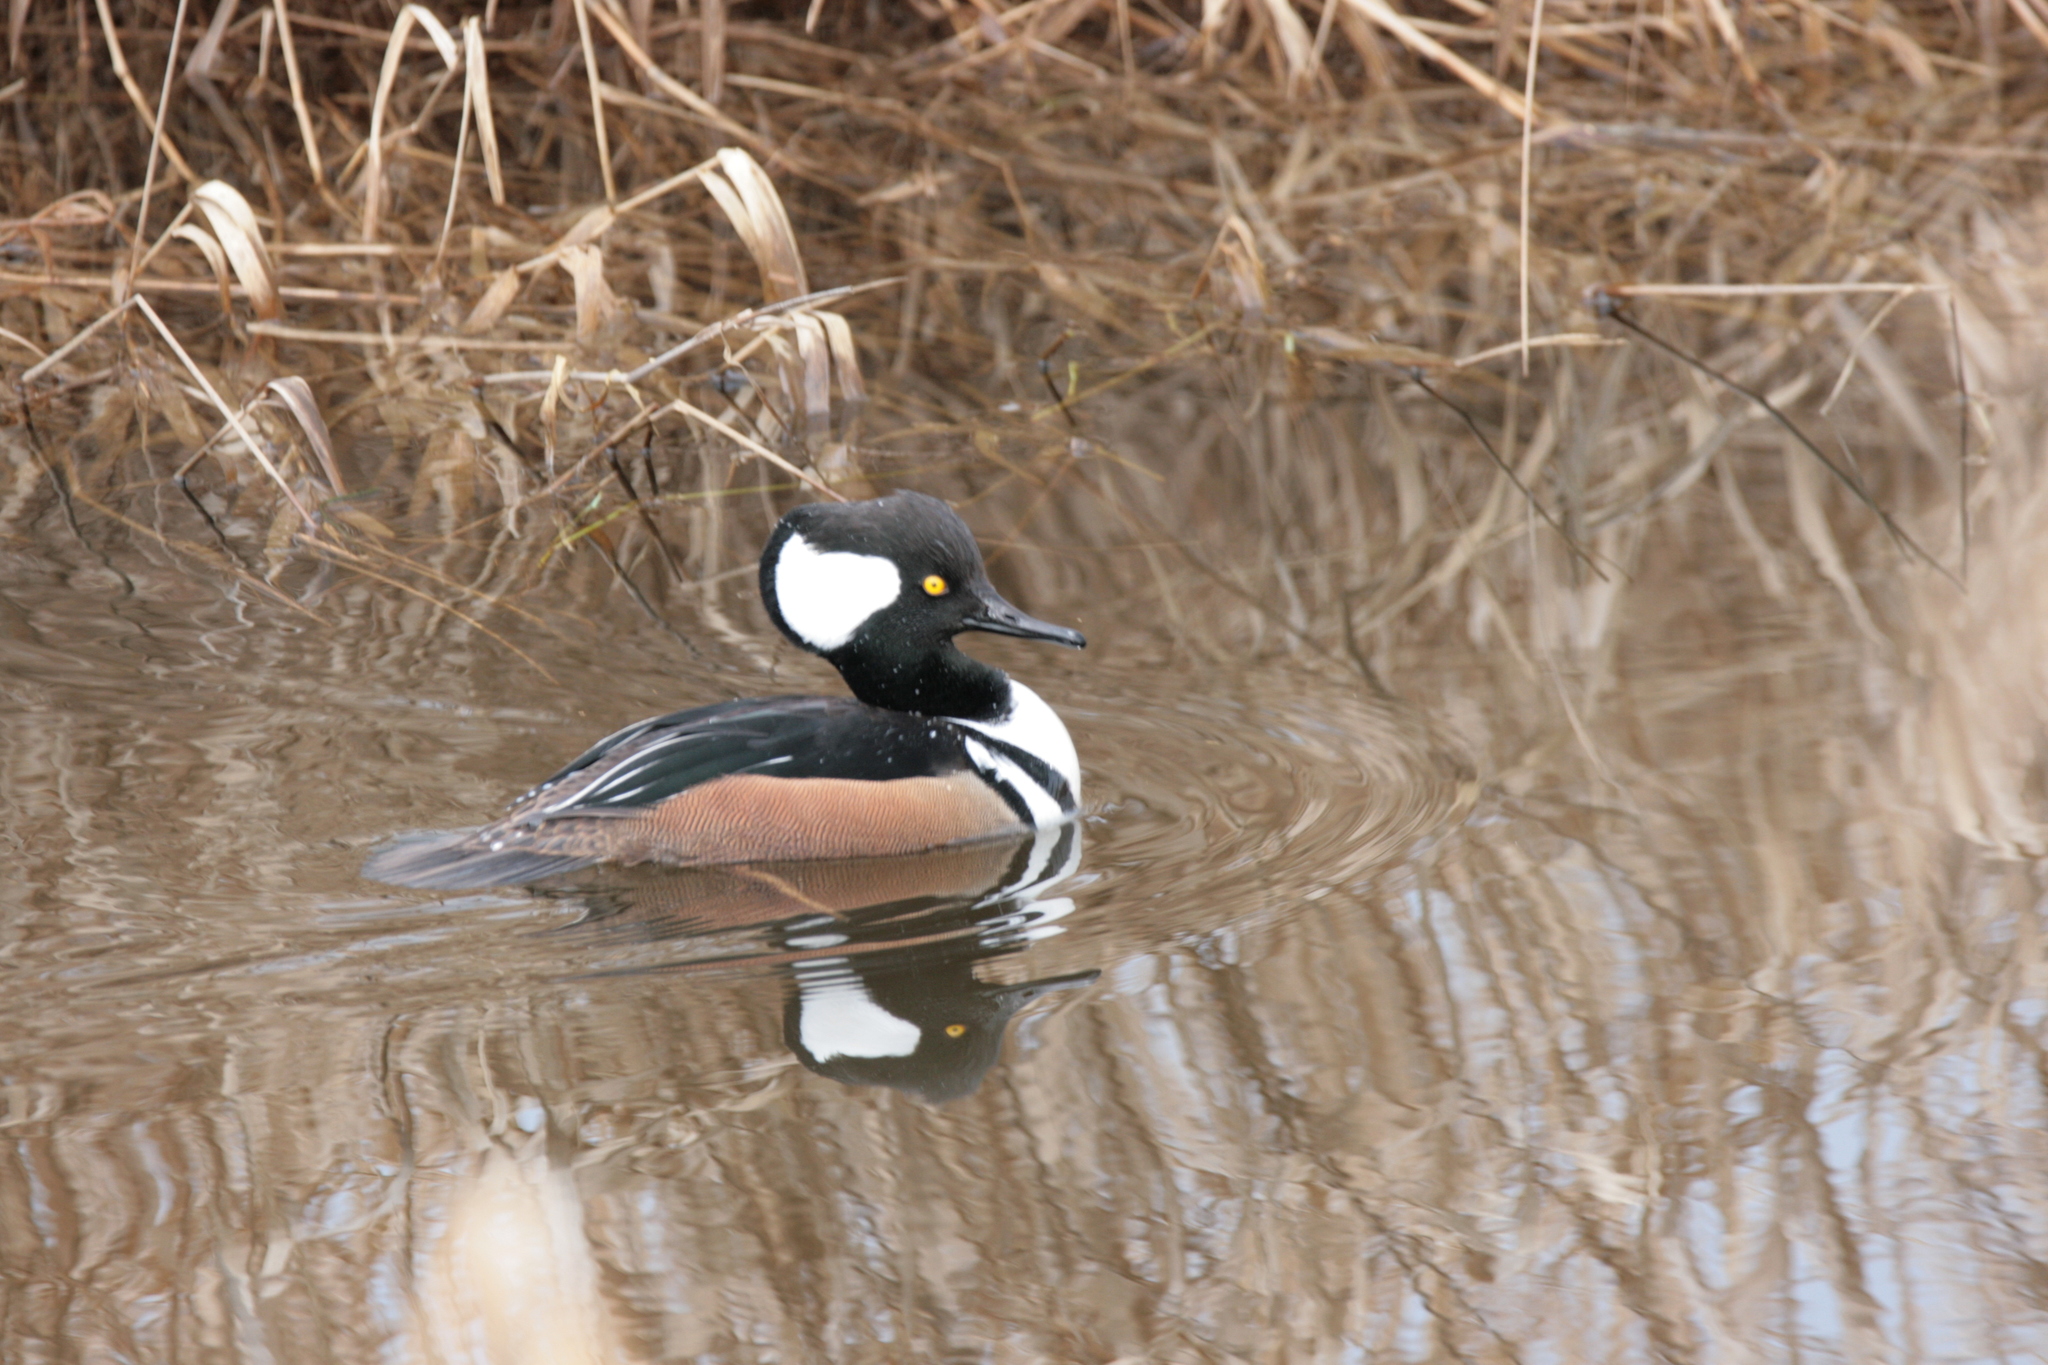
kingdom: Animalia
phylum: Chordata
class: Aves
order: Anseriformes
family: Anatidae
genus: Lophodytes
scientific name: Lophodytes cucullatus
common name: Hooded merganser
